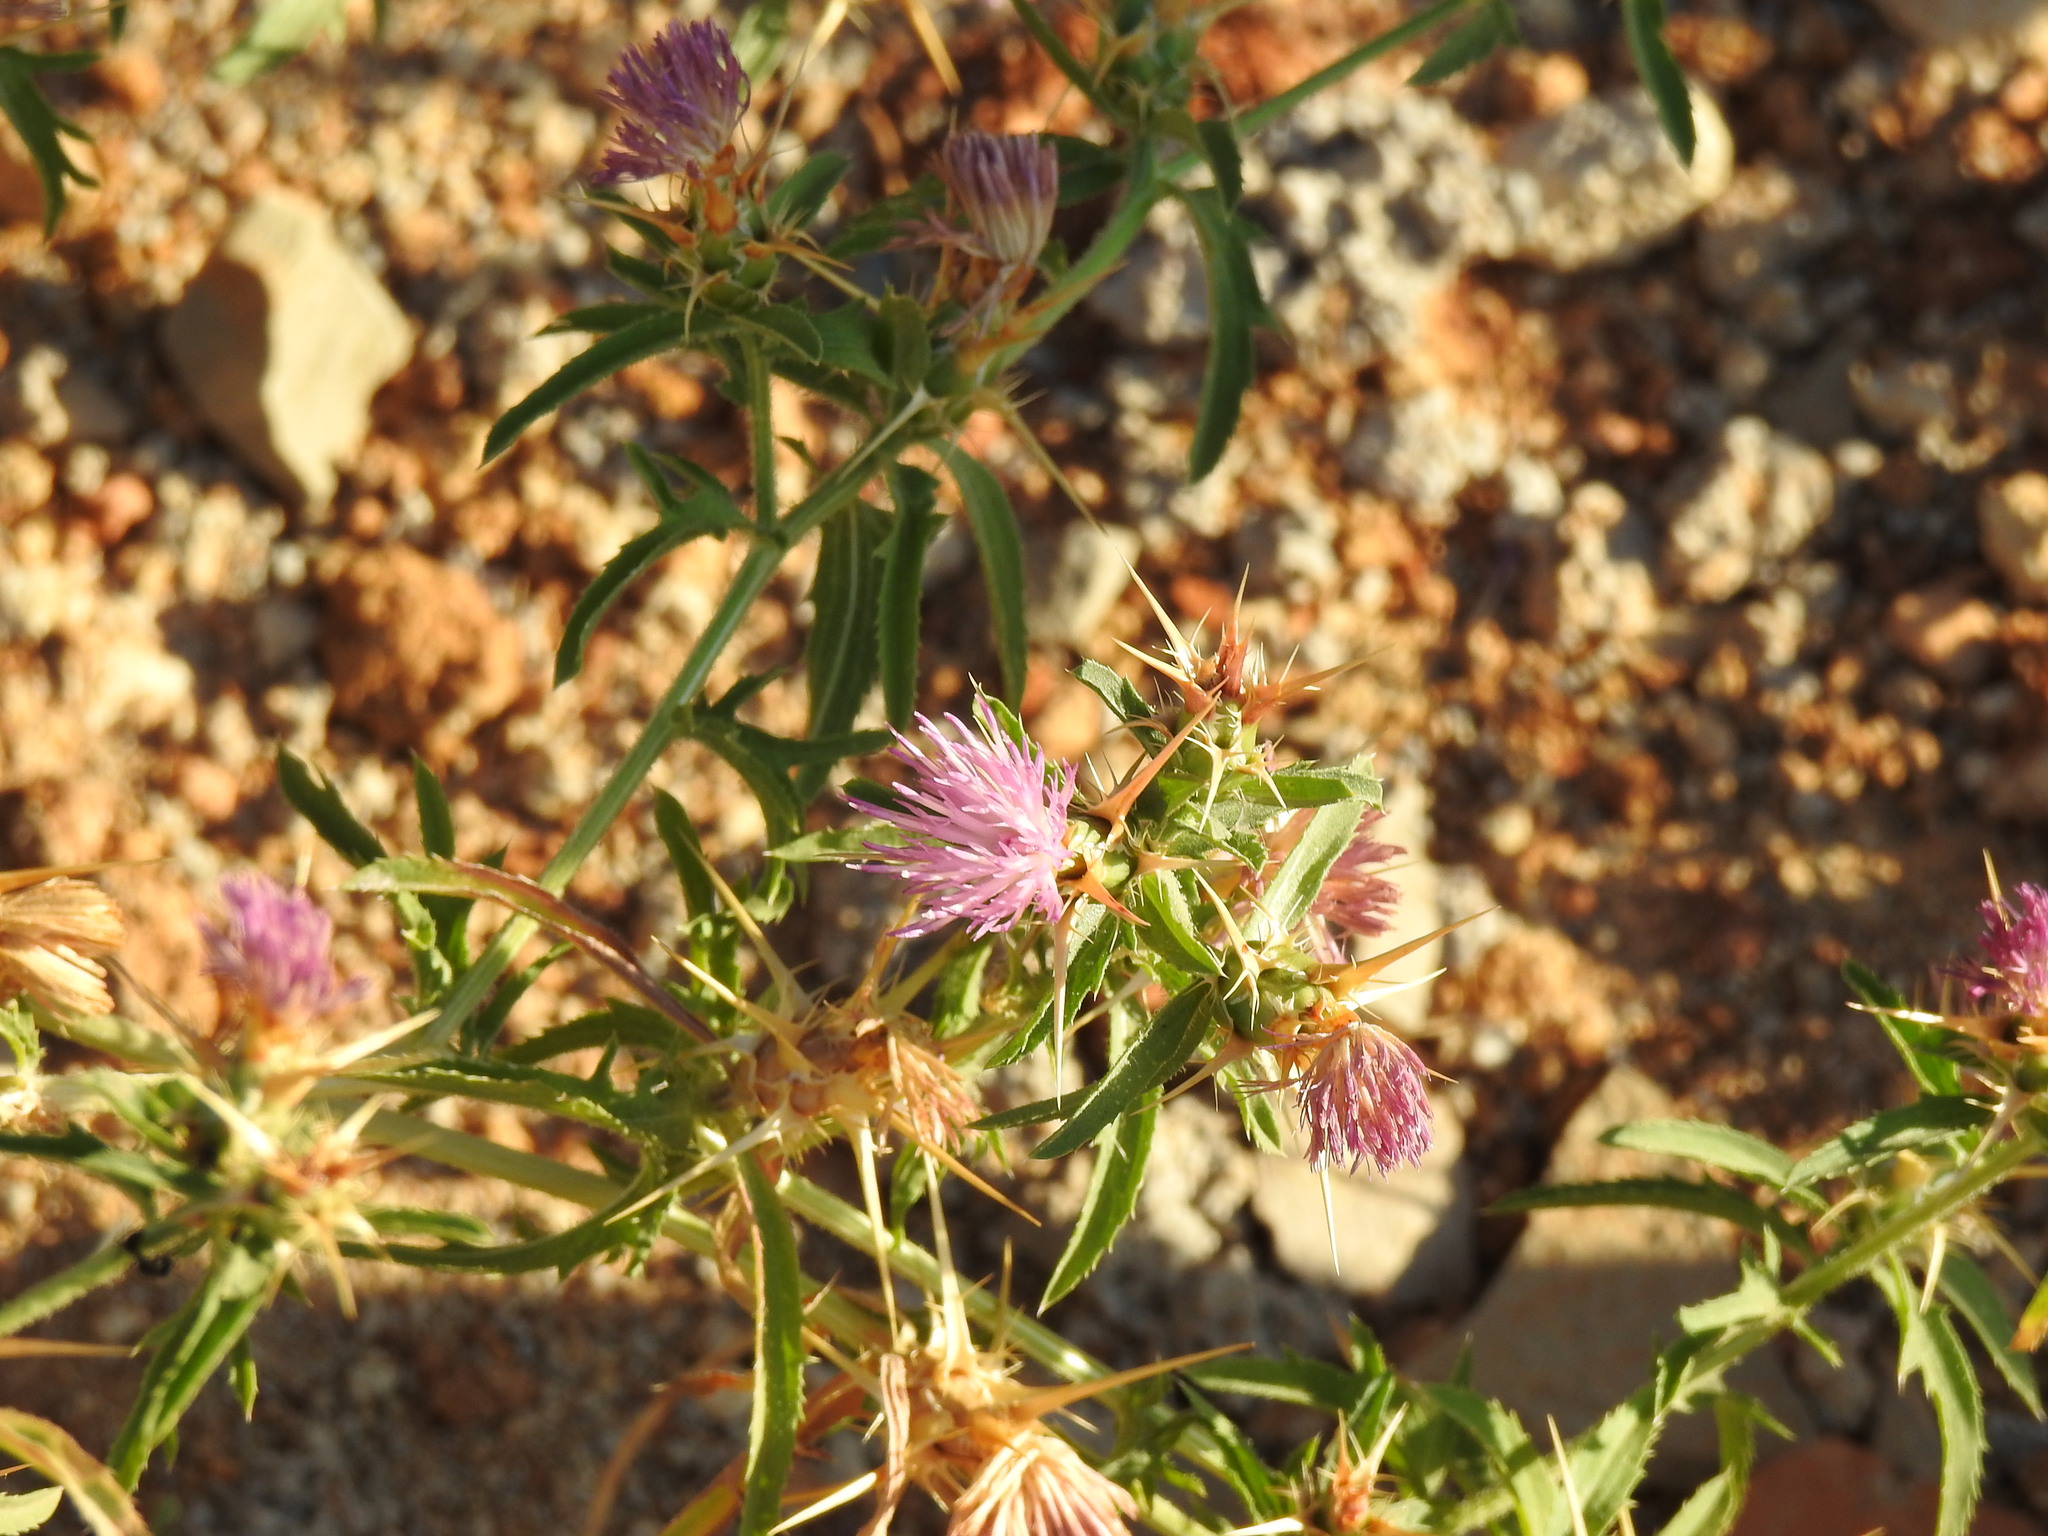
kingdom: Plantae
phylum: Tracheophyta
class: Magnoliopsida
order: Asterales
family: Asteraceae
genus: Centaurea
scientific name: Centaurea calcitrapa
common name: Red star-thistle
